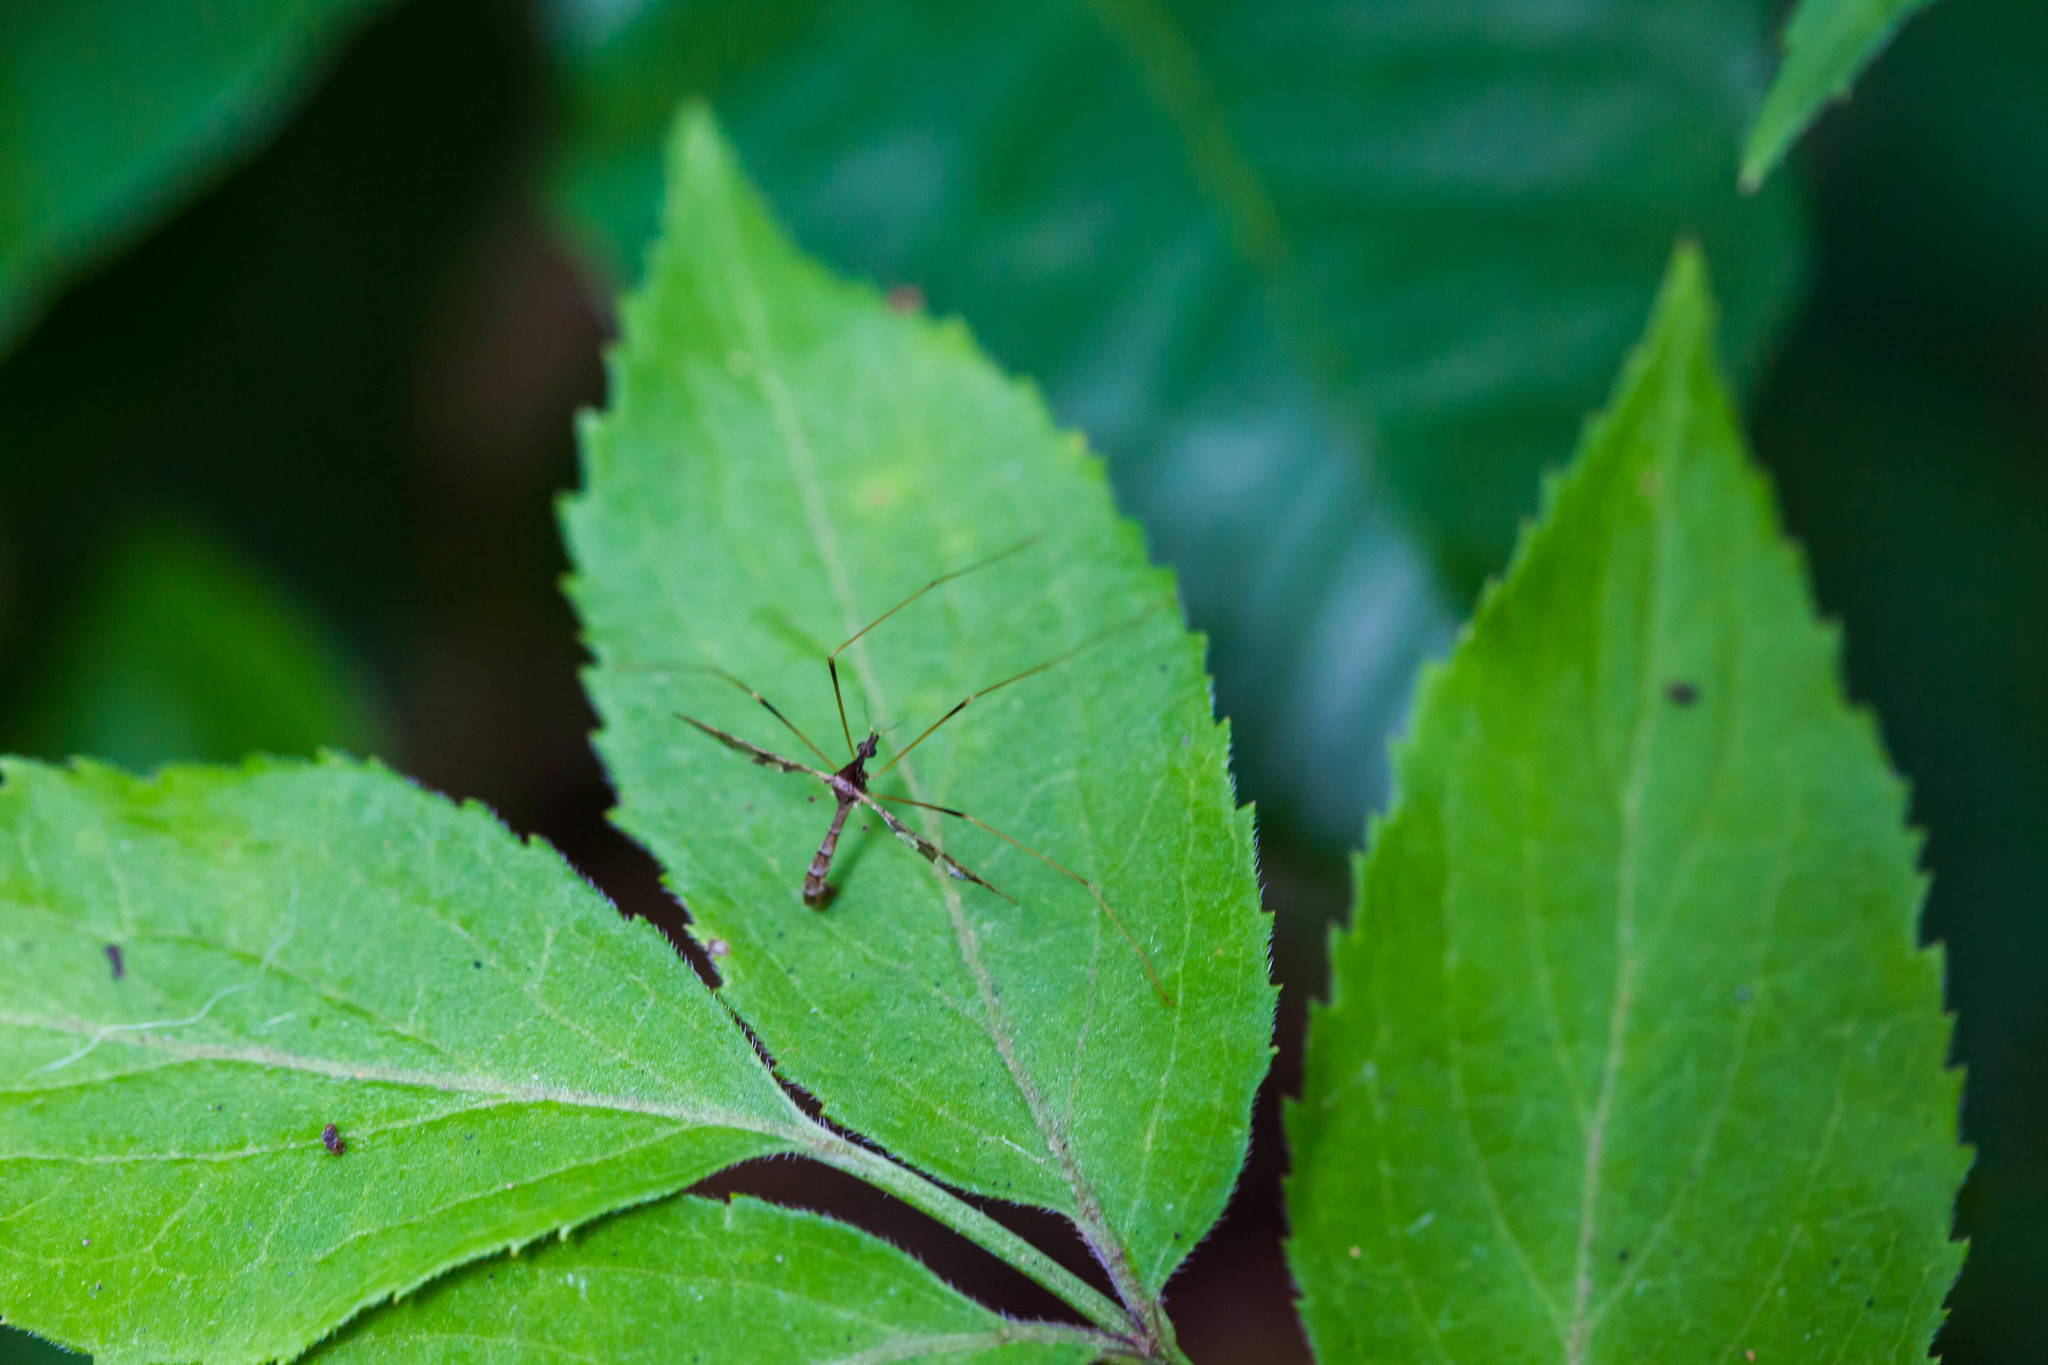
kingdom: Animalia
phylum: Arthropoda
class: Insecta
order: Diptera
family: Limoniidae
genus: Epiphragma
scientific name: Epiphragma solatrix
